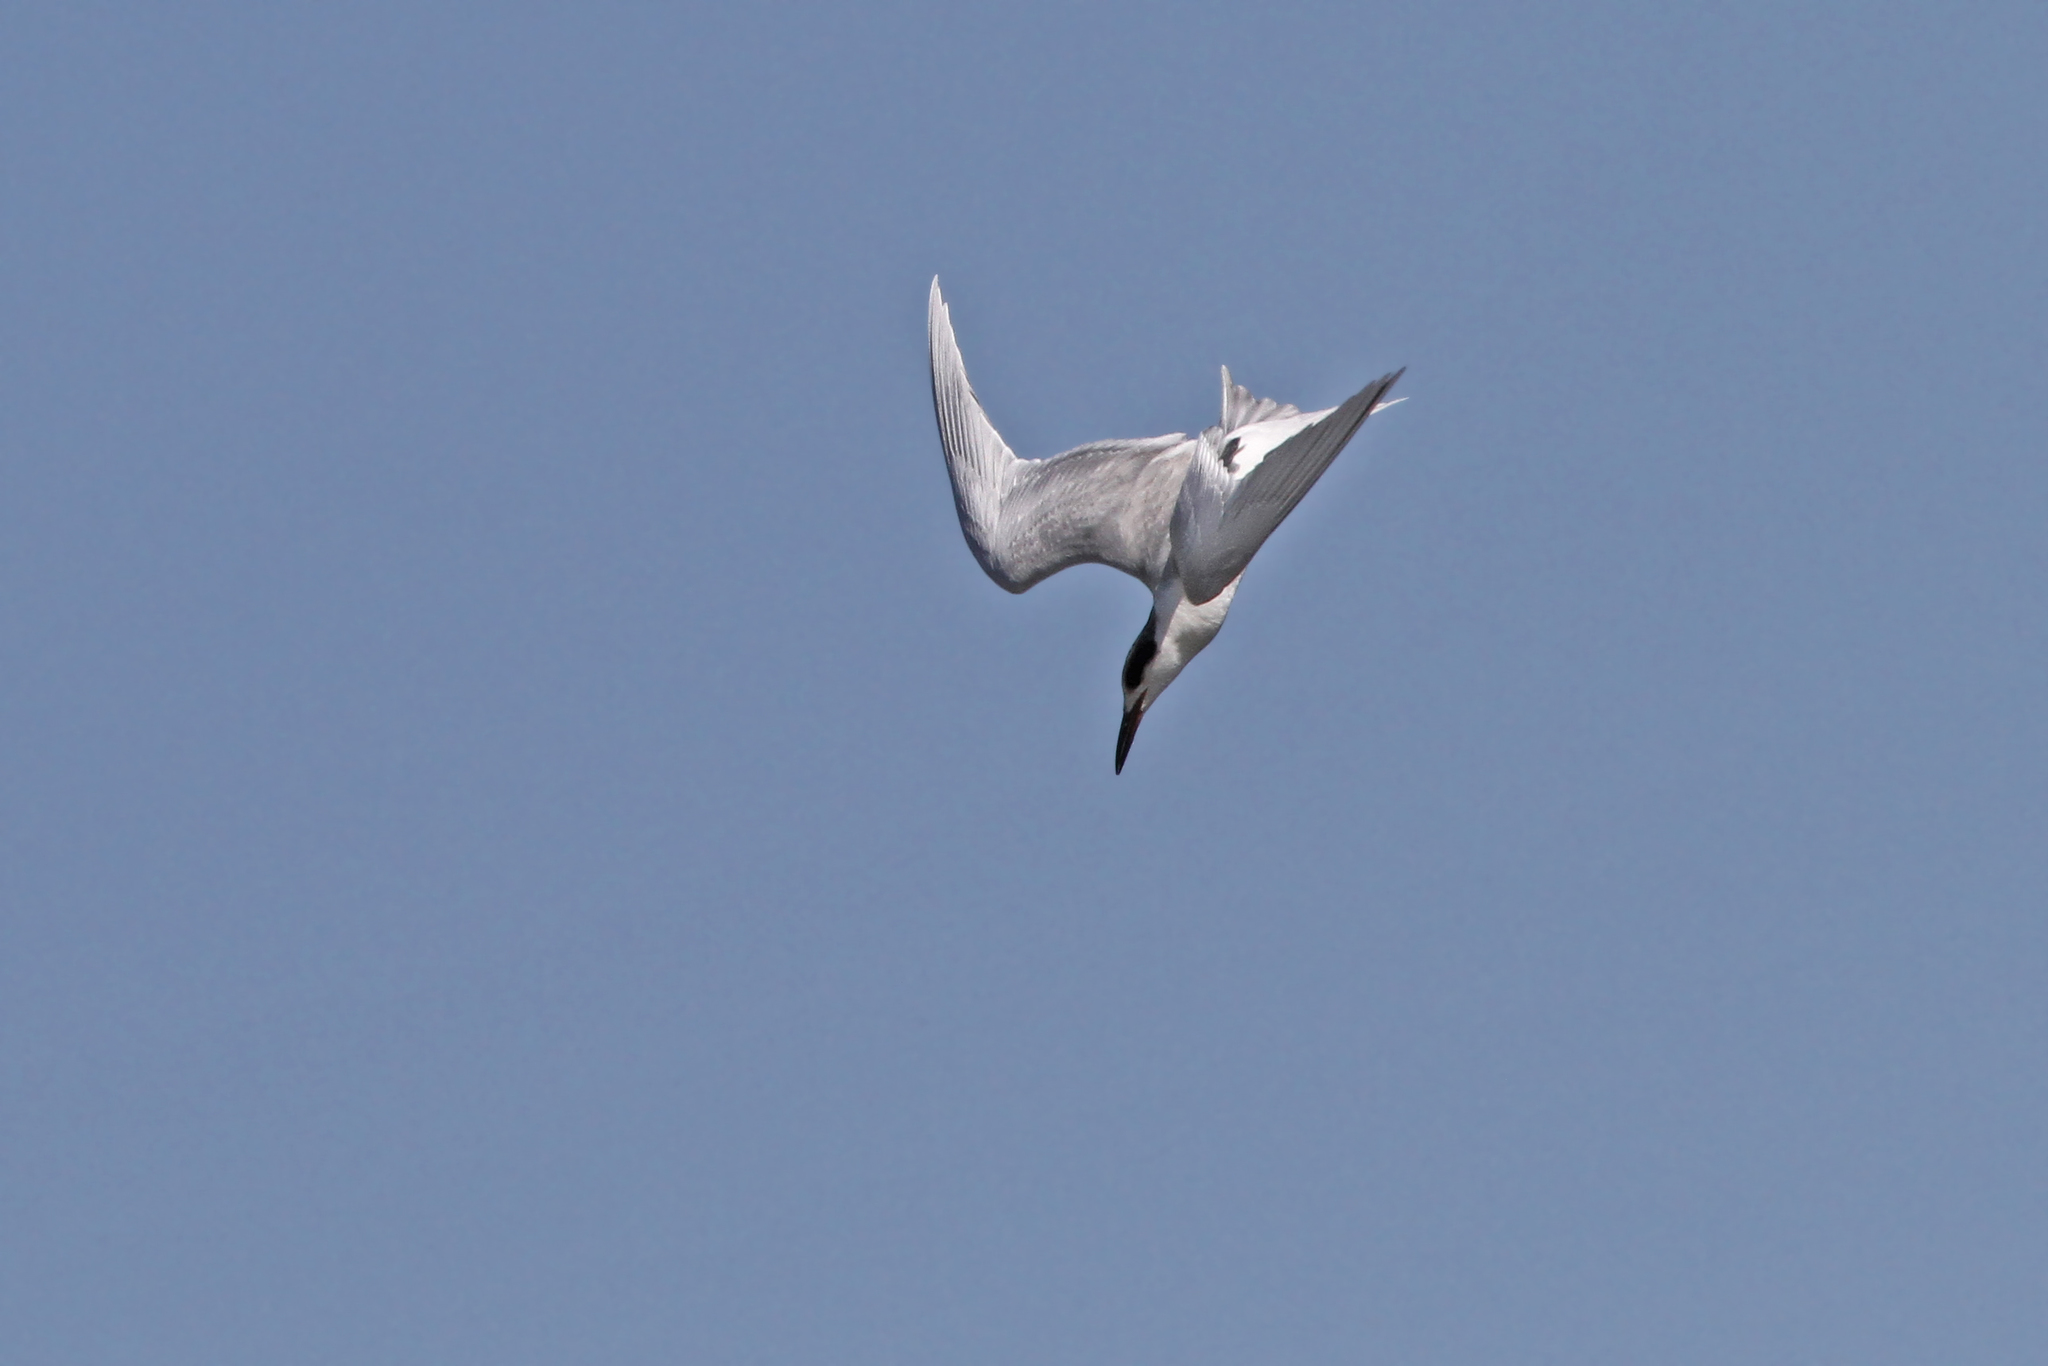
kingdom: Animalia
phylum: Chordata
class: Aves
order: Charadriiformes
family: Laridae
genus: Sterna
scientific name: Sterna forsteri
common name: Forster's tern
